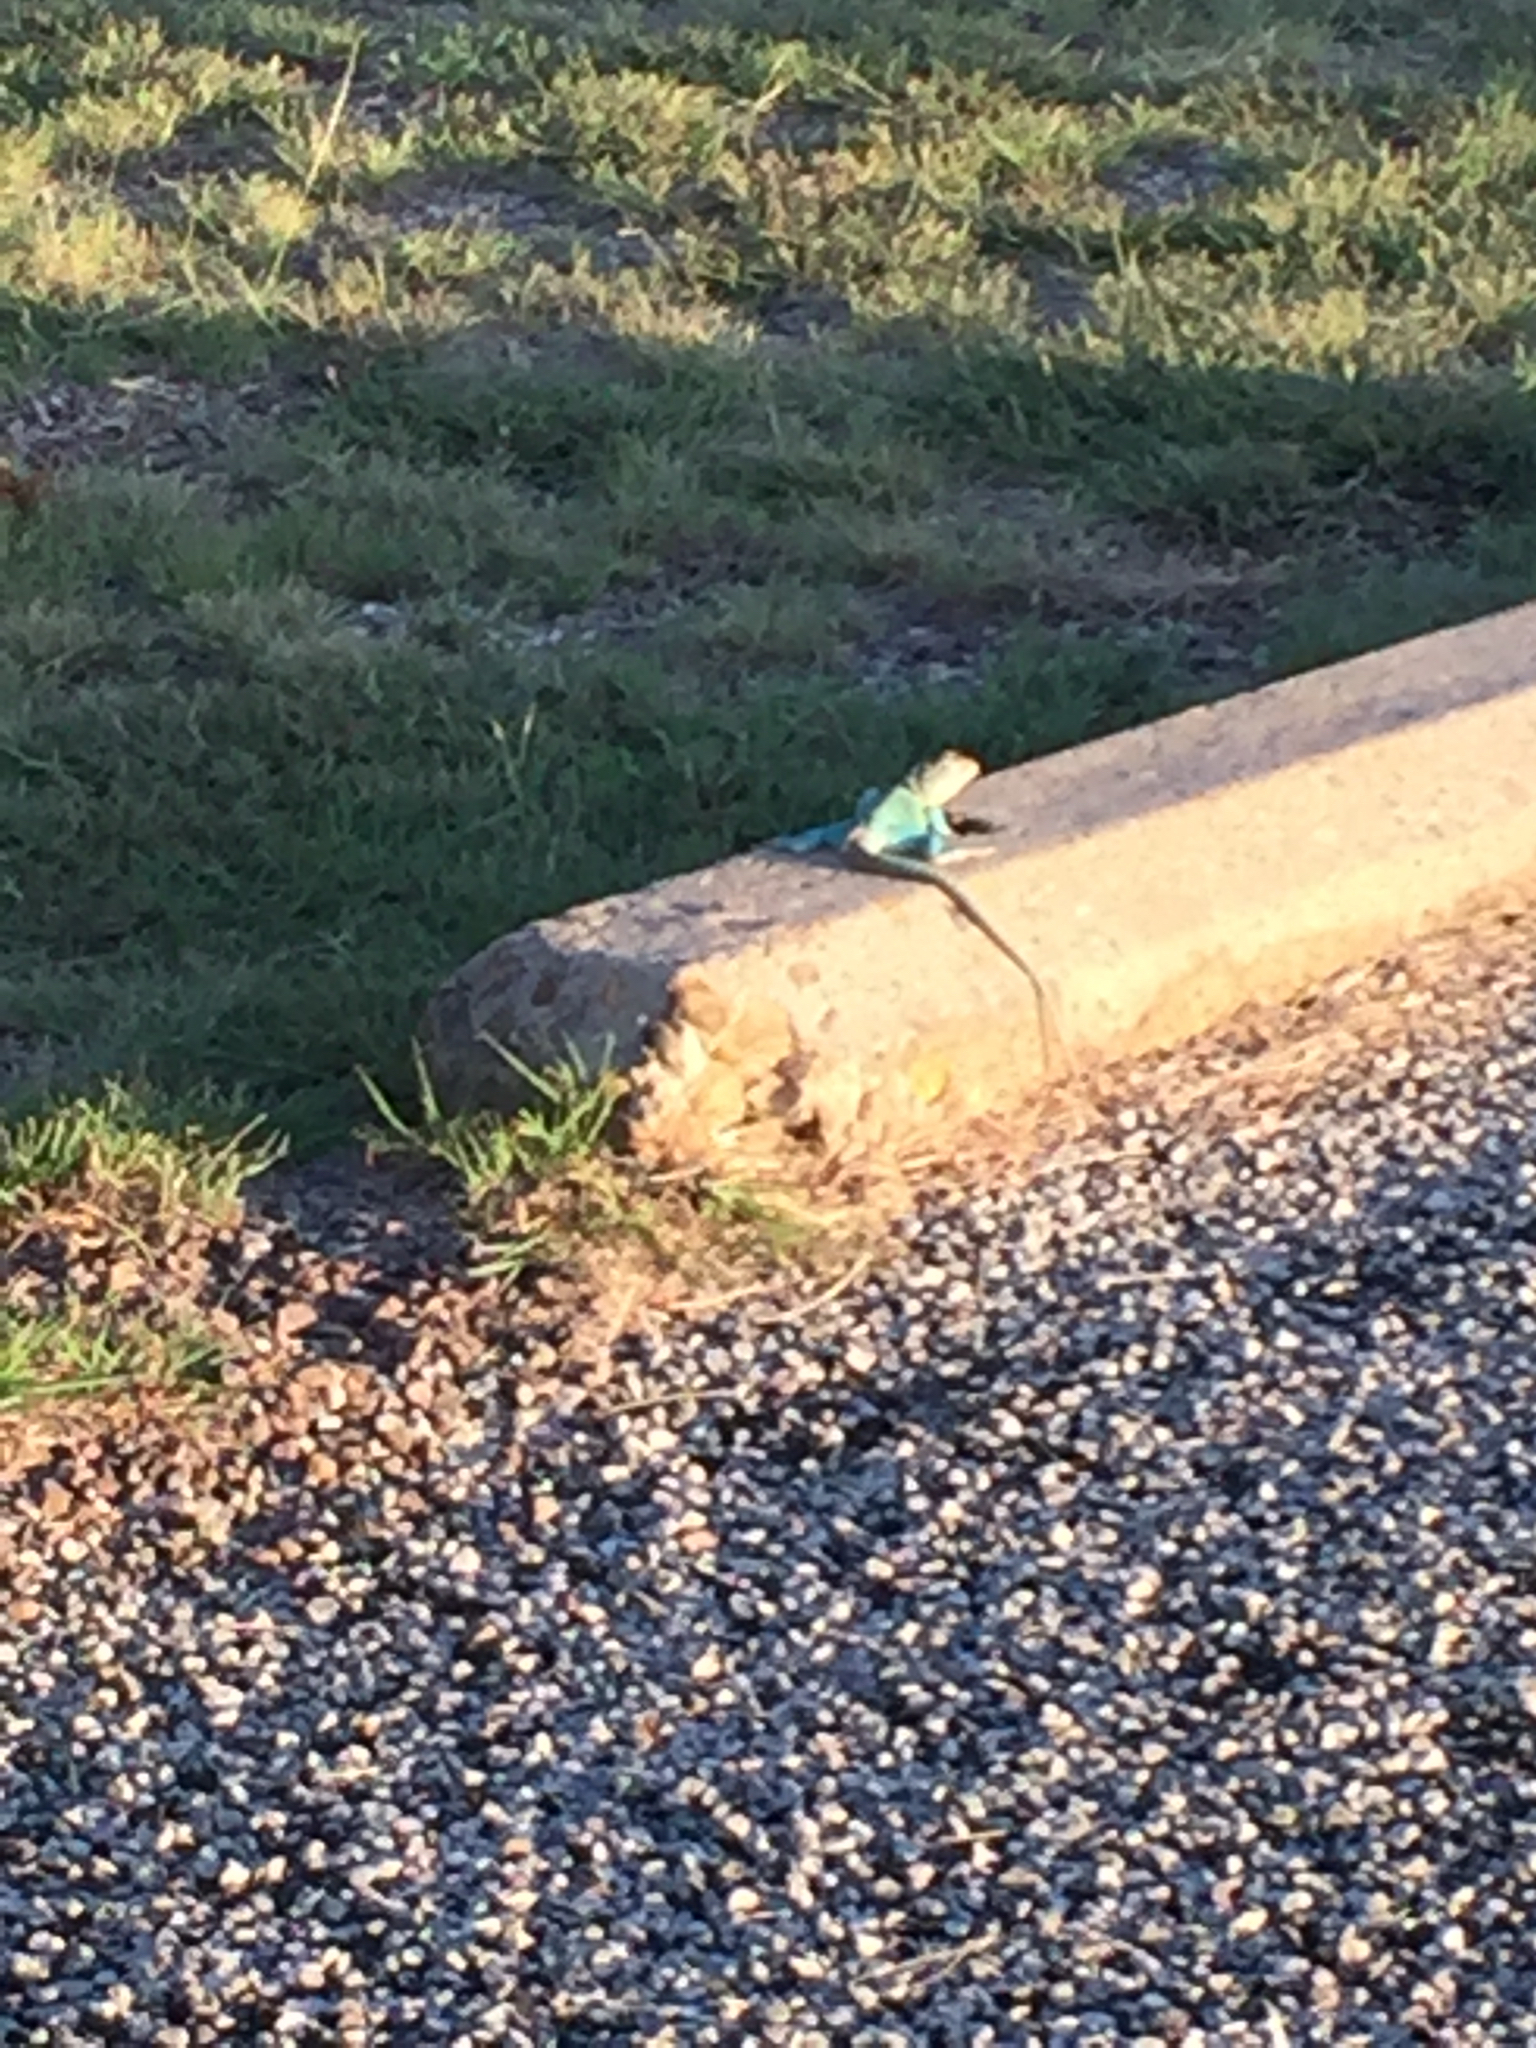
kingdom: Animalia
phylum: Chordata
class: Squamata
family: Crotaphytidae
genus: Crotaphytus
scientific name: Crotaphytus collaris
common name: Collared lizard
